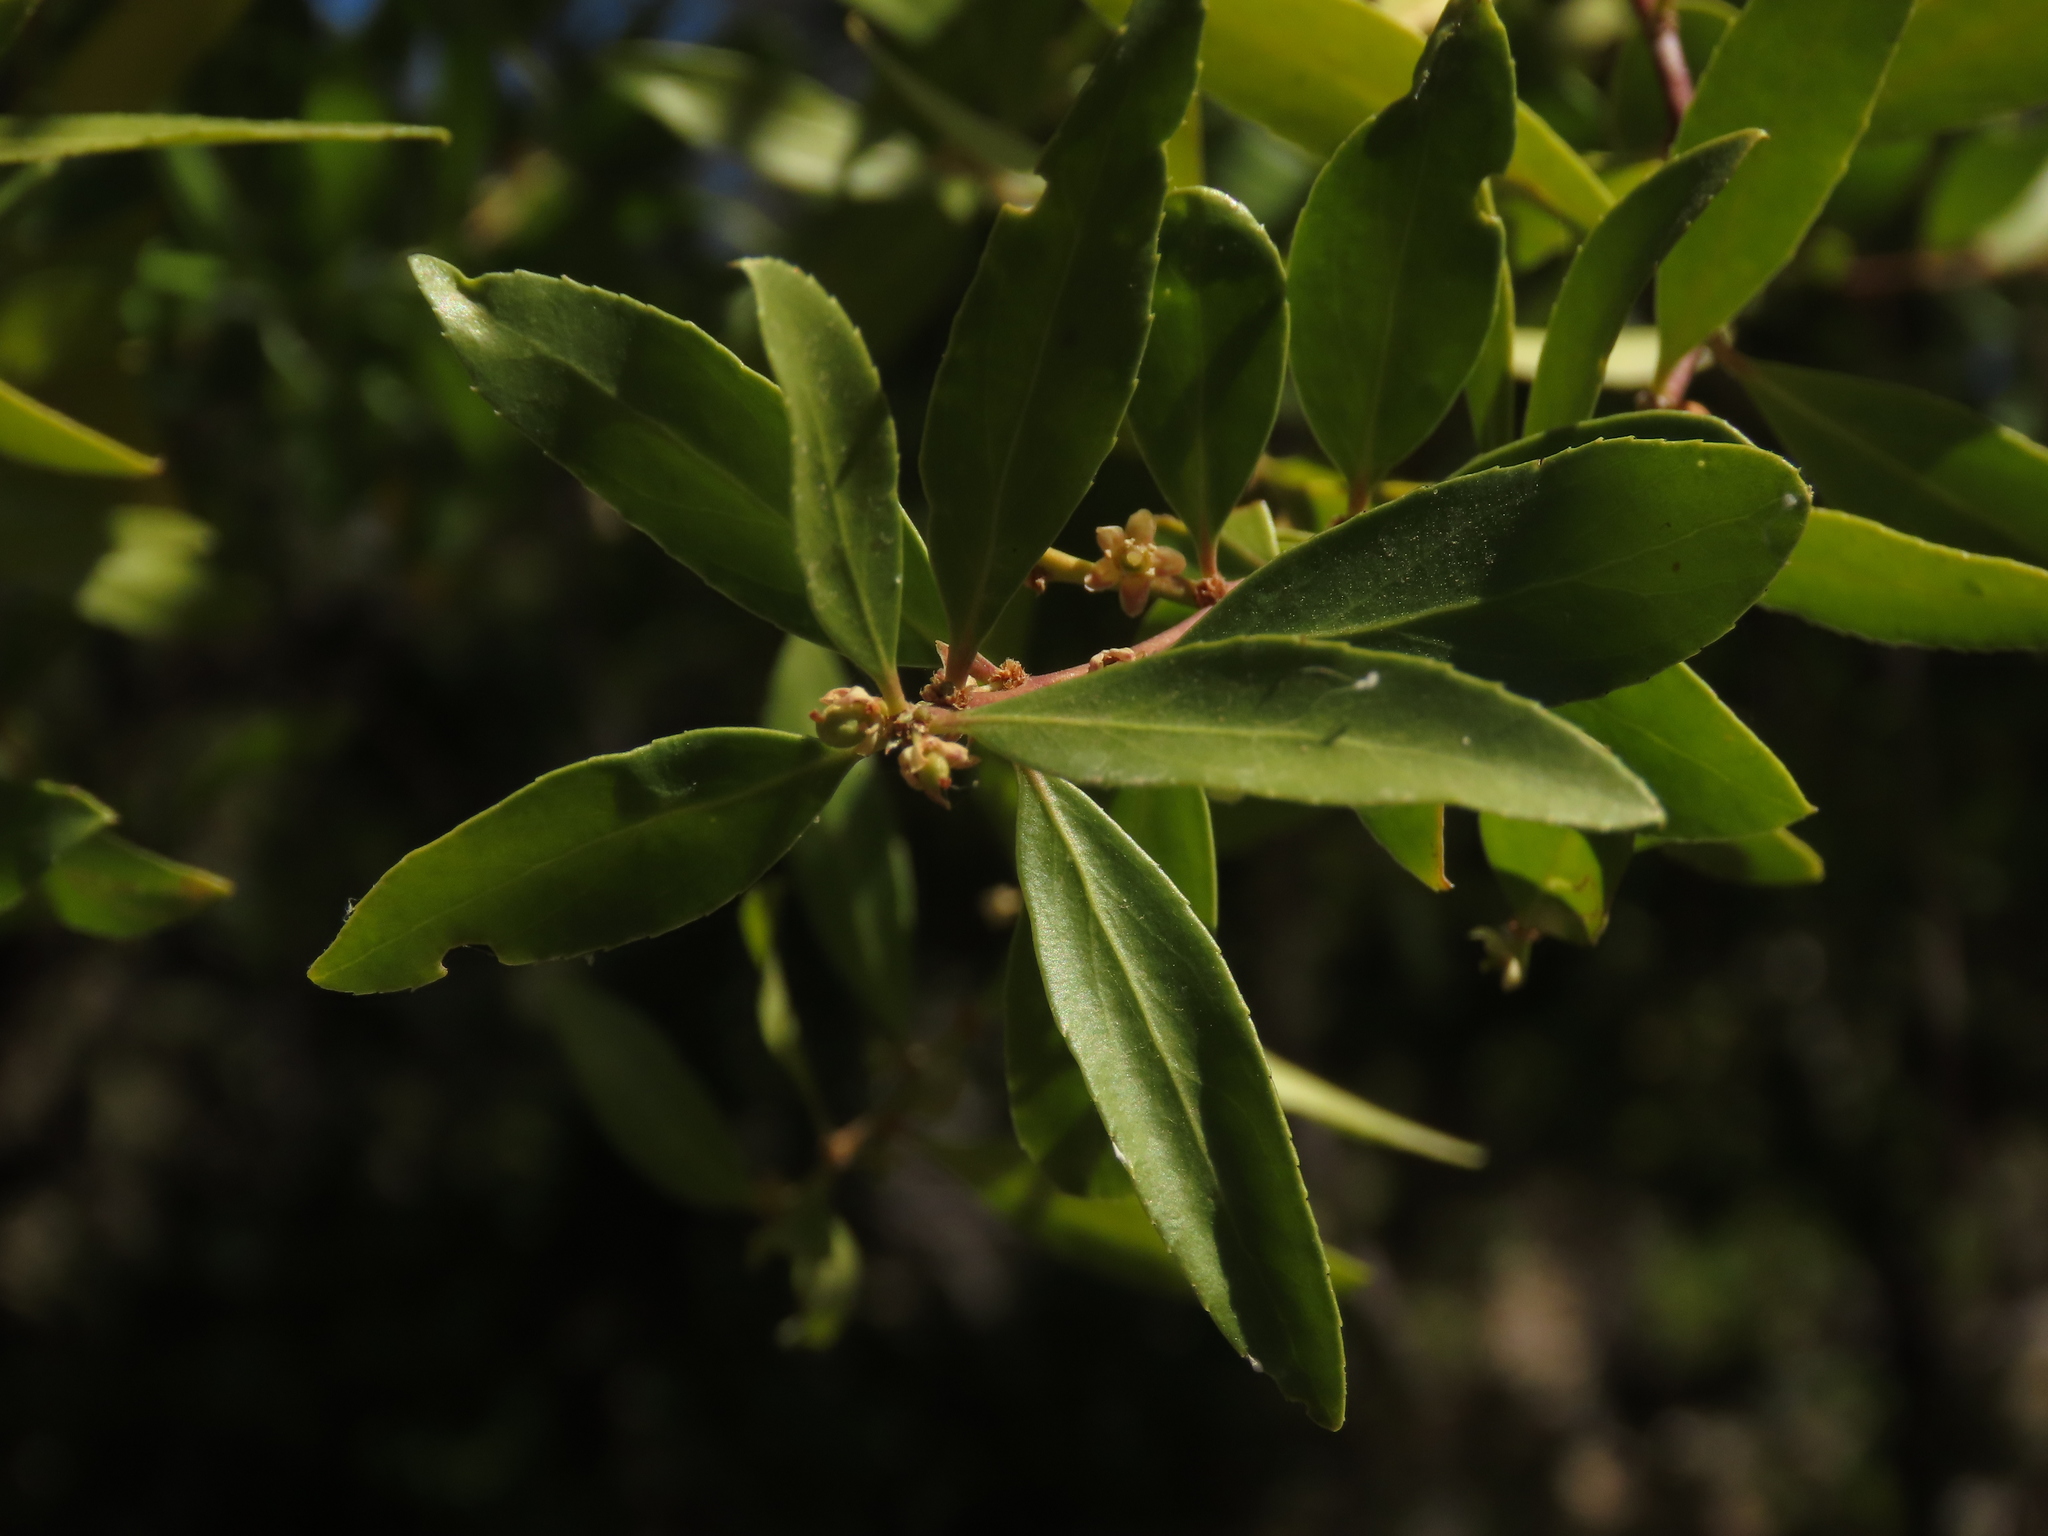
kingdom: Plantae
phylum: Tracheophyta
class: Magnoliopsida
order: Celastrales
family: Celastraceae
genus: Maytenus
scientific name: Maytenus boaria
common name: Mayten
